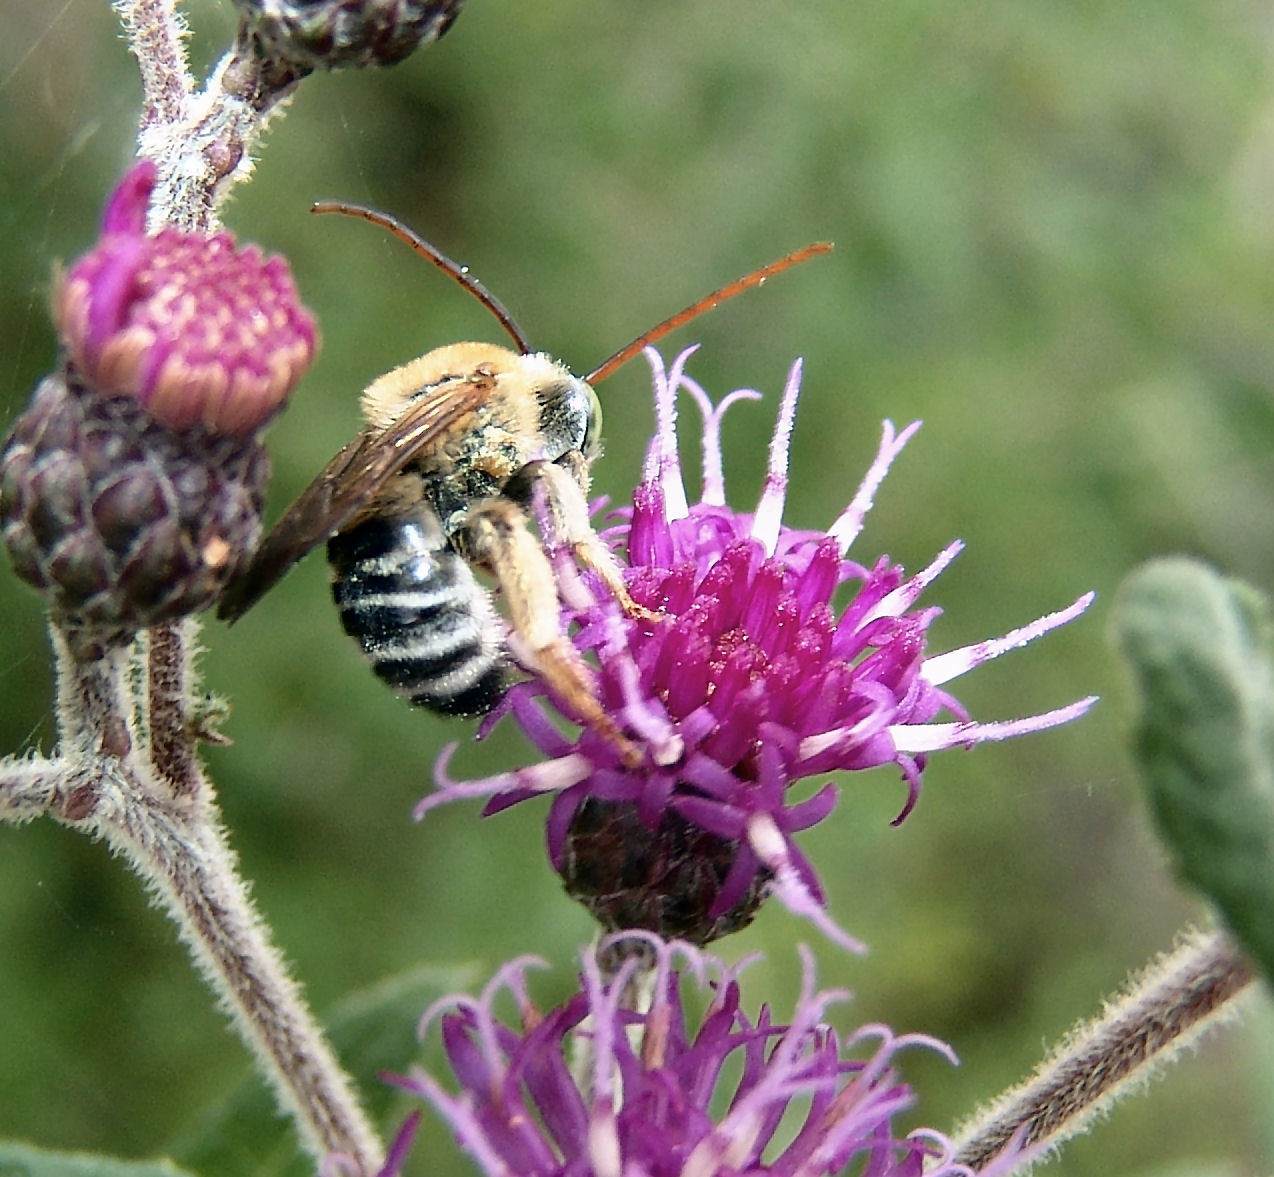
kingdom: Animalia
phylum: Arthropoda
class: Insecta
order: Hymenoptera
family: Apidae
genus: Melissodes
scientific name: Melissodes comptoides
